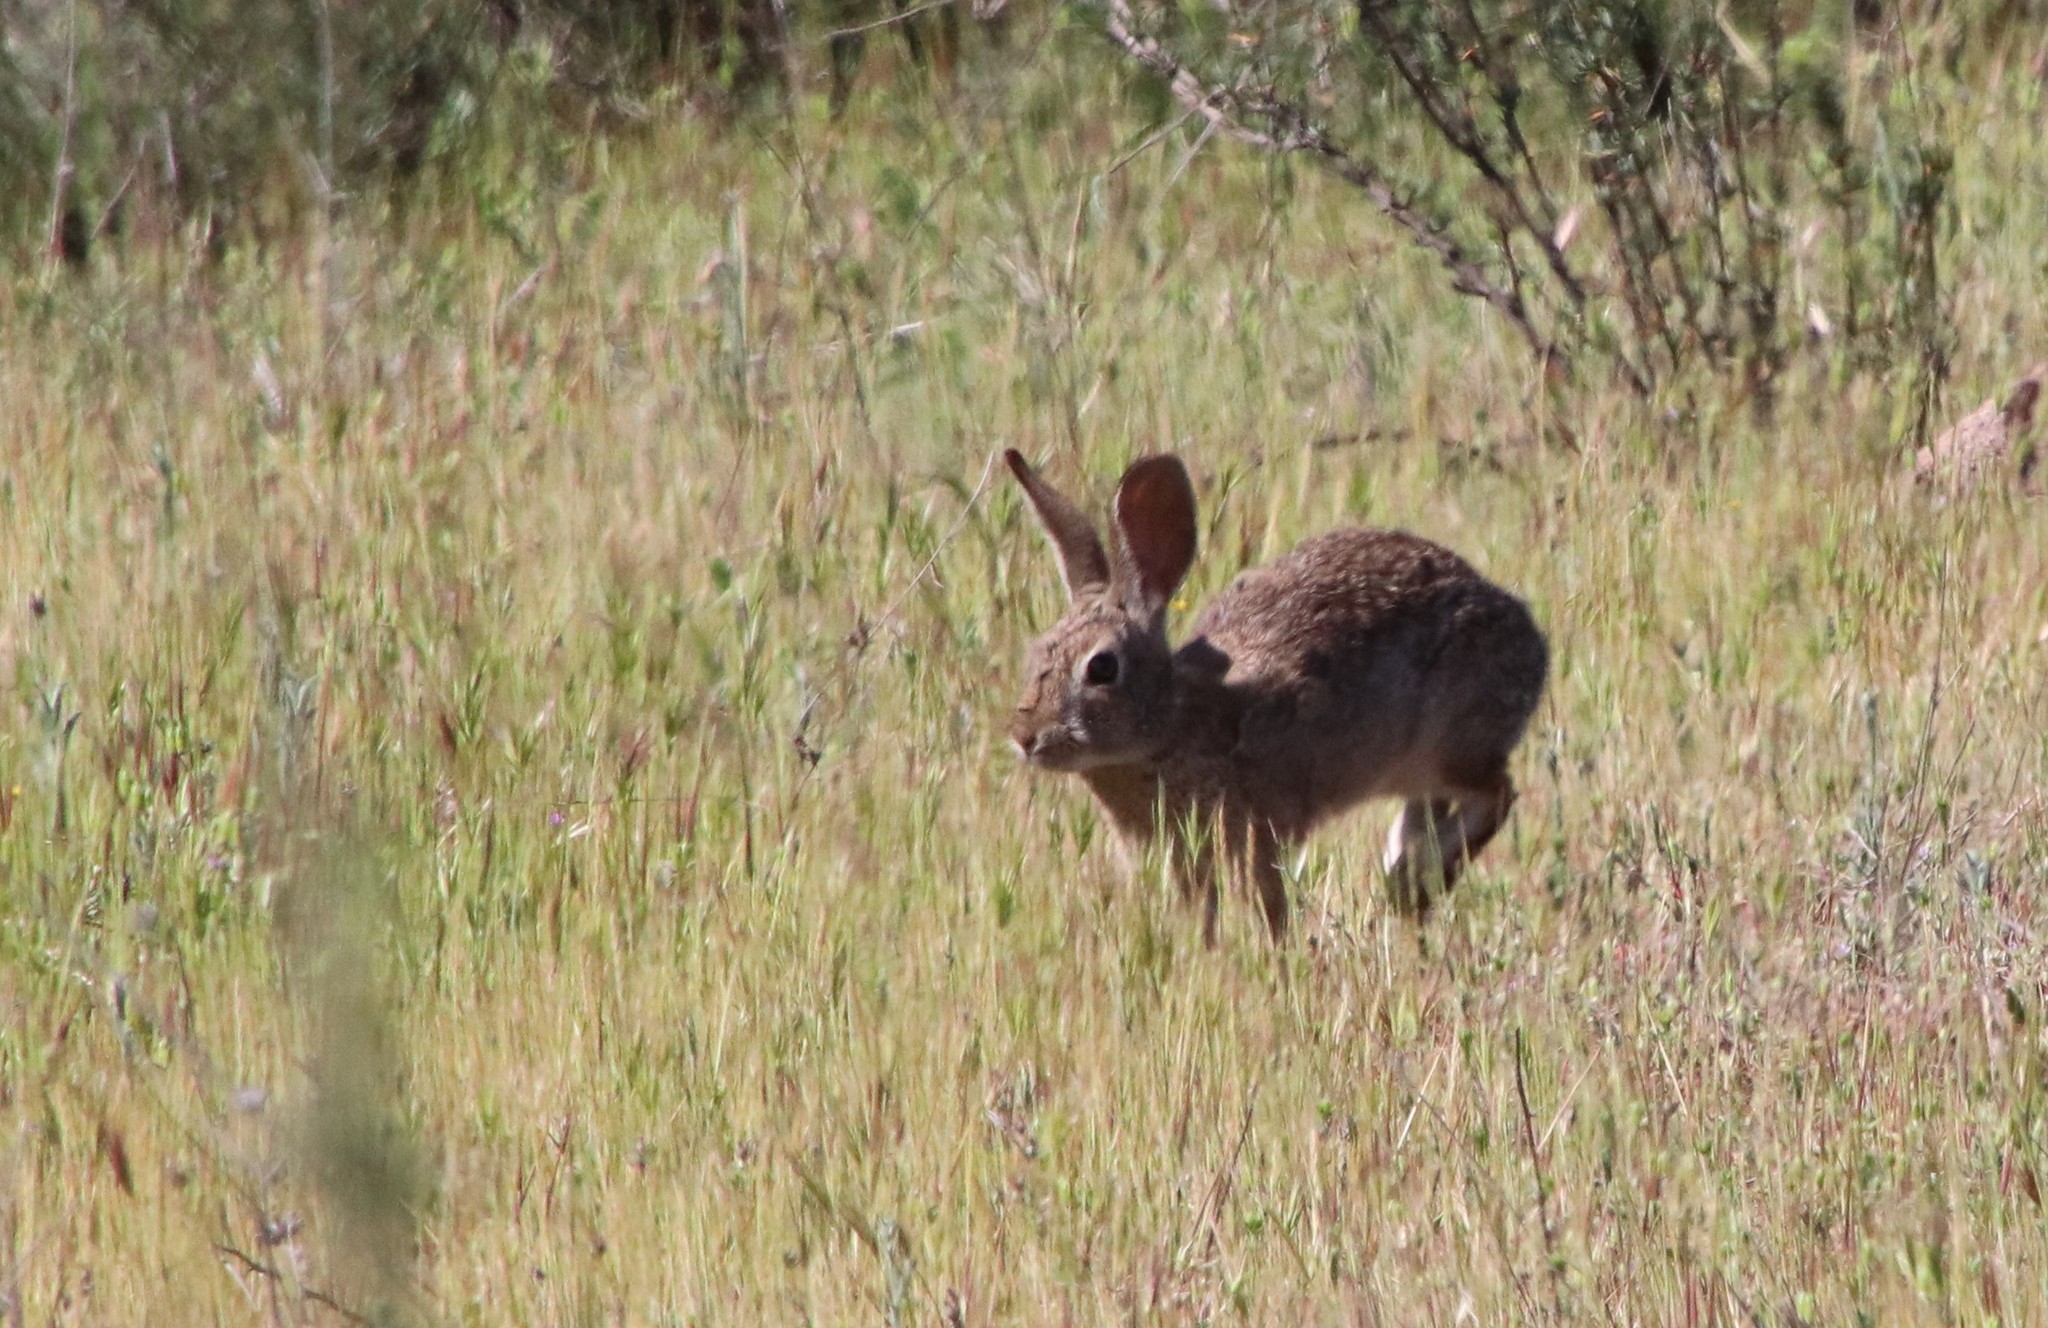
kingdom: Animalia
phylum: Chordata
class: Mammalia
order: Lagomorpha
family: Leporidae
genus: Sylvilagus
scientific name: Sylvilagus audubonii
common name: Desert cottontail
